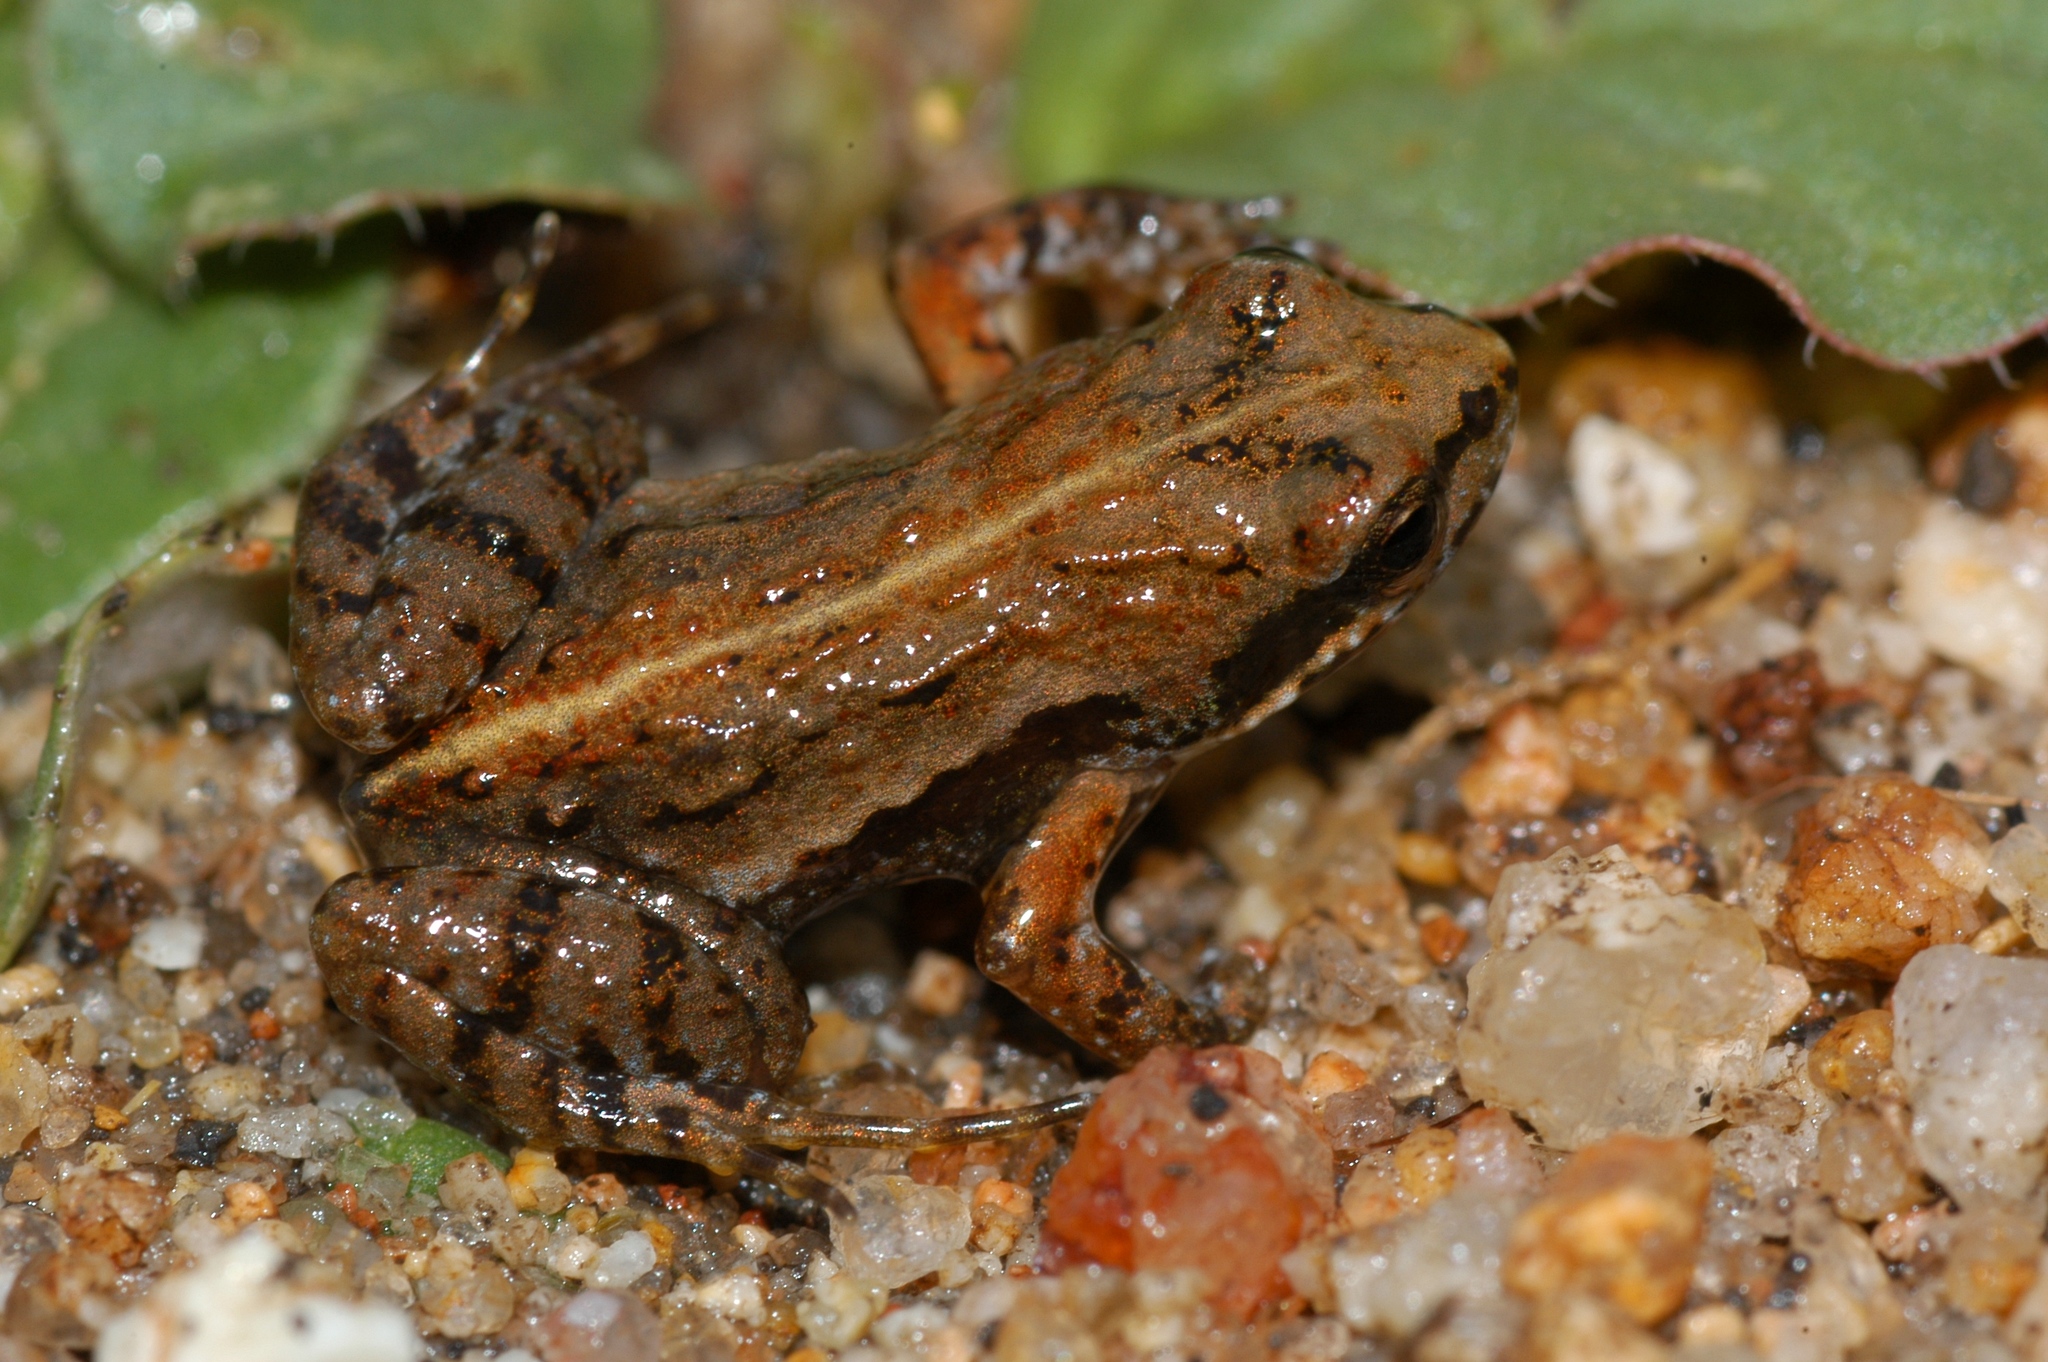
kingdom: Animalia
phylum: Chordata
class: Amphibia
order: Anura
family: Pyxicephalidae
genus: Cacosternum
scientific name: Cacosternum parvum
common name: Mountain caco
